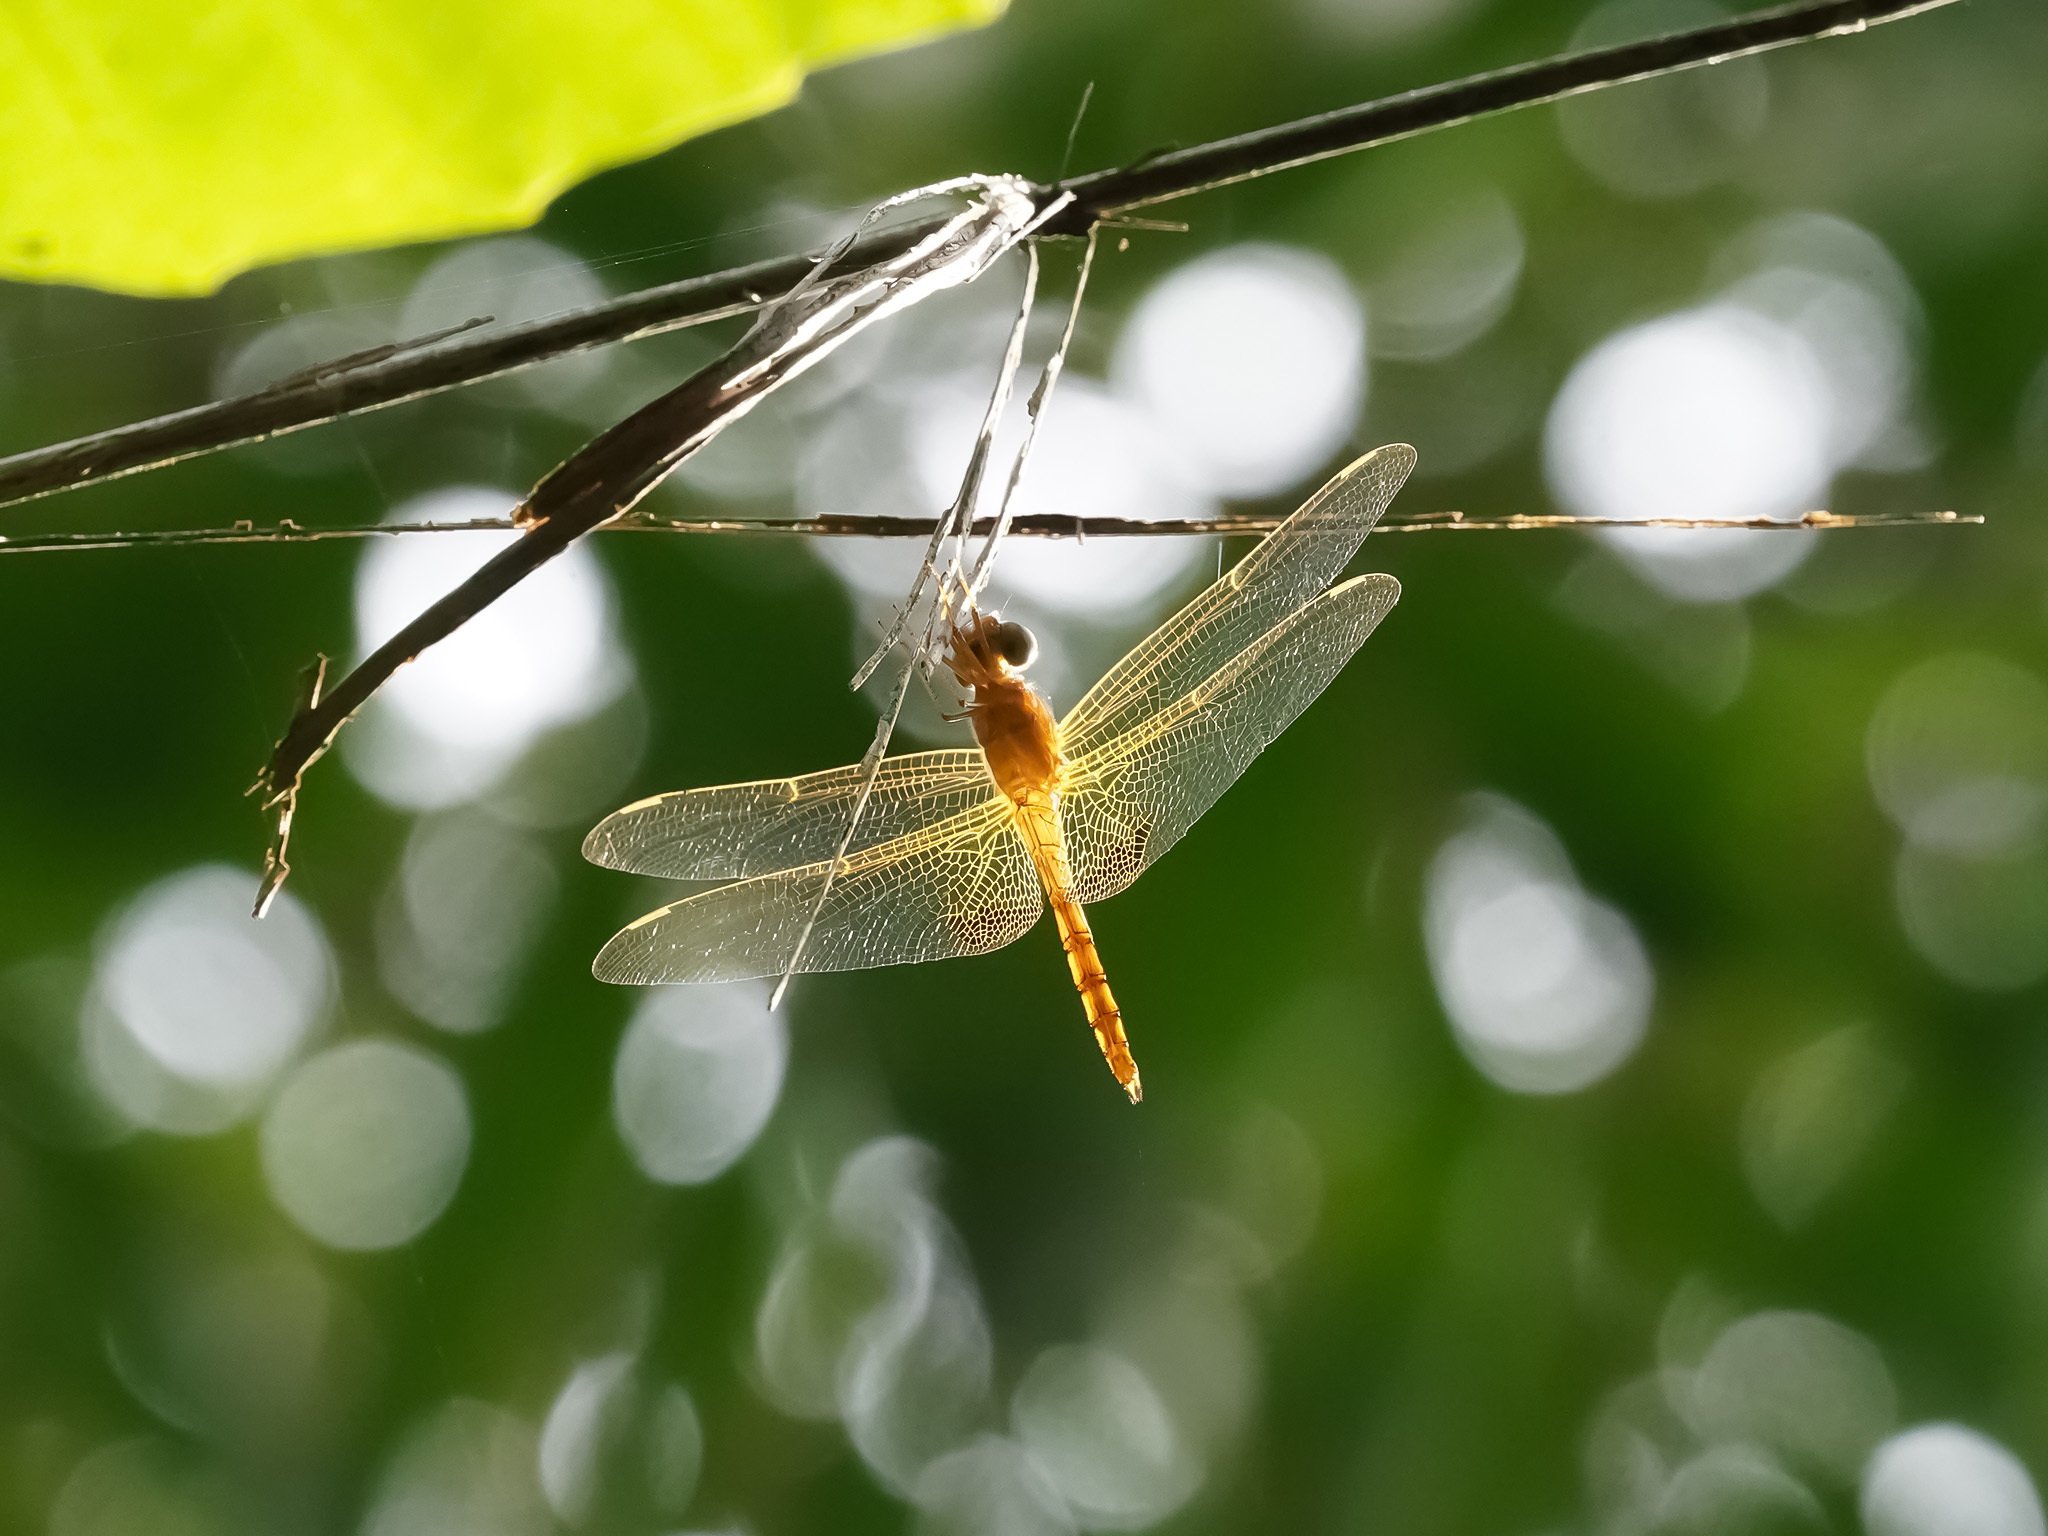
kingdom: Animalia
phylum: Arthropoda
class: Insecta
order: Odonata
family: Libellulidae
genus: Hydrobasileus
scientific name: Hydrobasileus croceus
